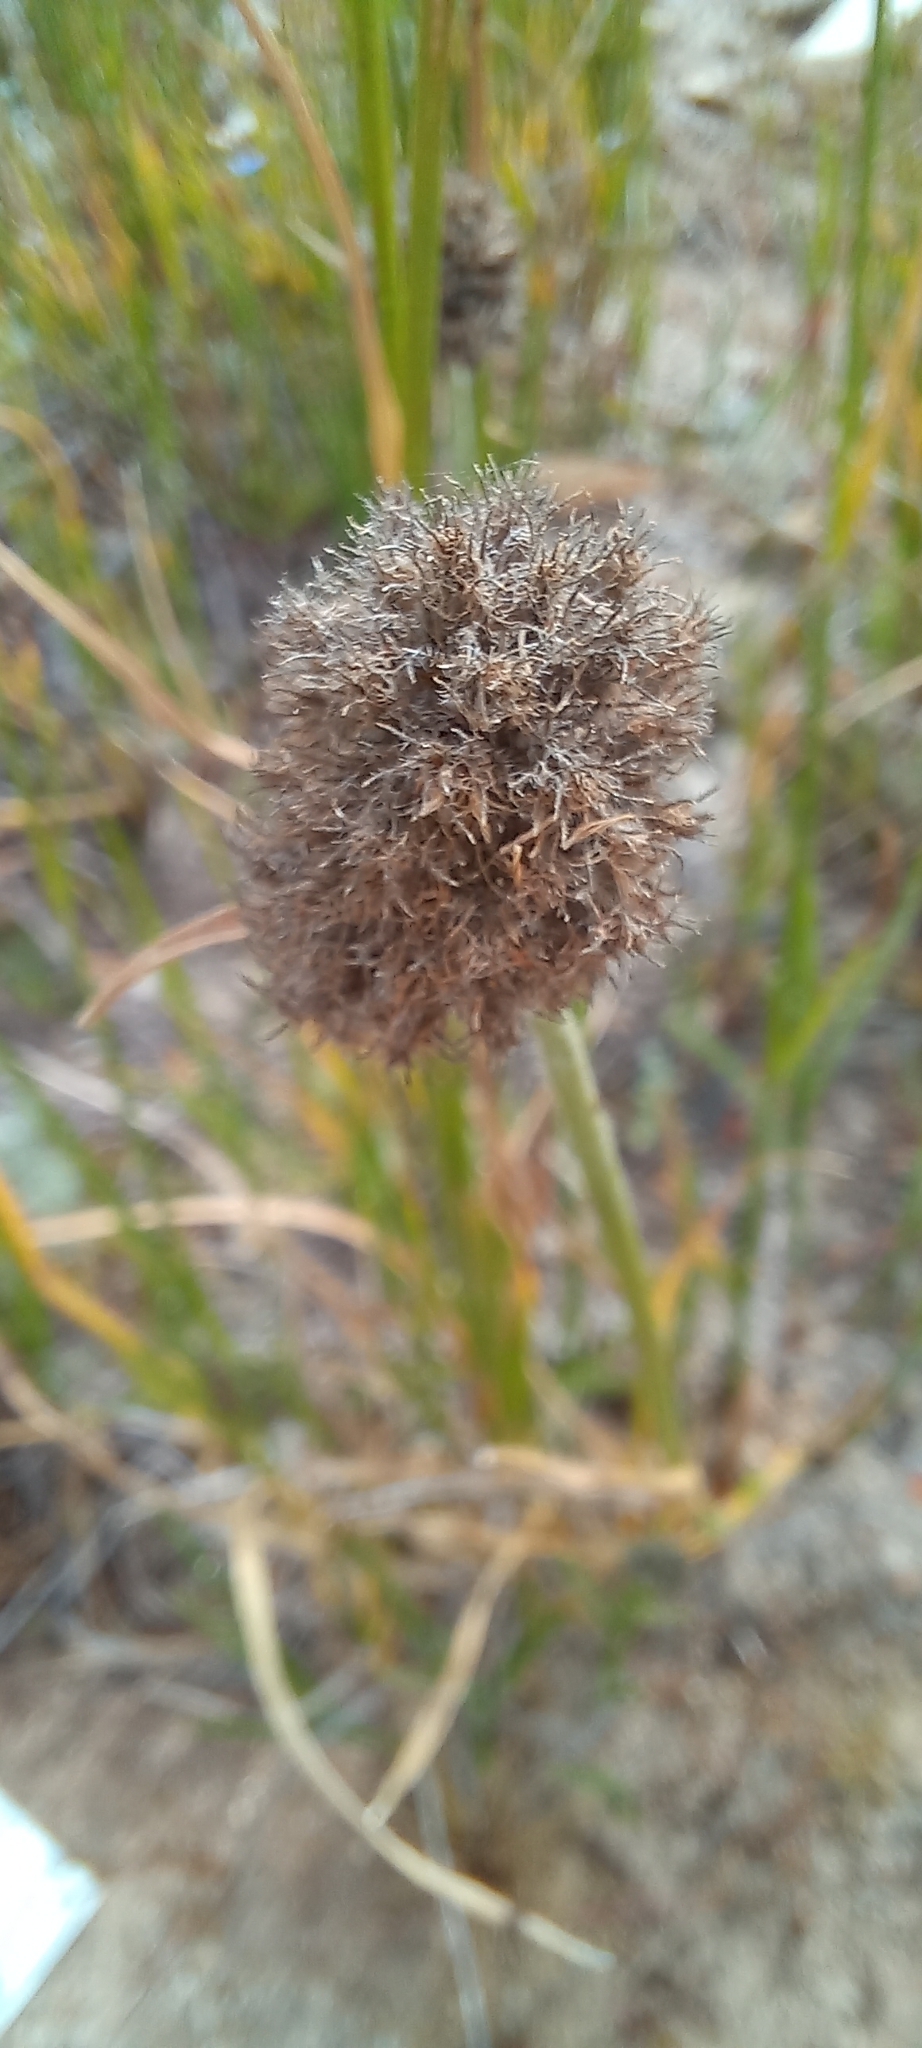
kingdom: Plantae
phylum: Tracheophyta
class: Liliopsida
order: Poales
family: Cyperaceae
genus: Fuirena
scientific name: Fuirena hirsuta
